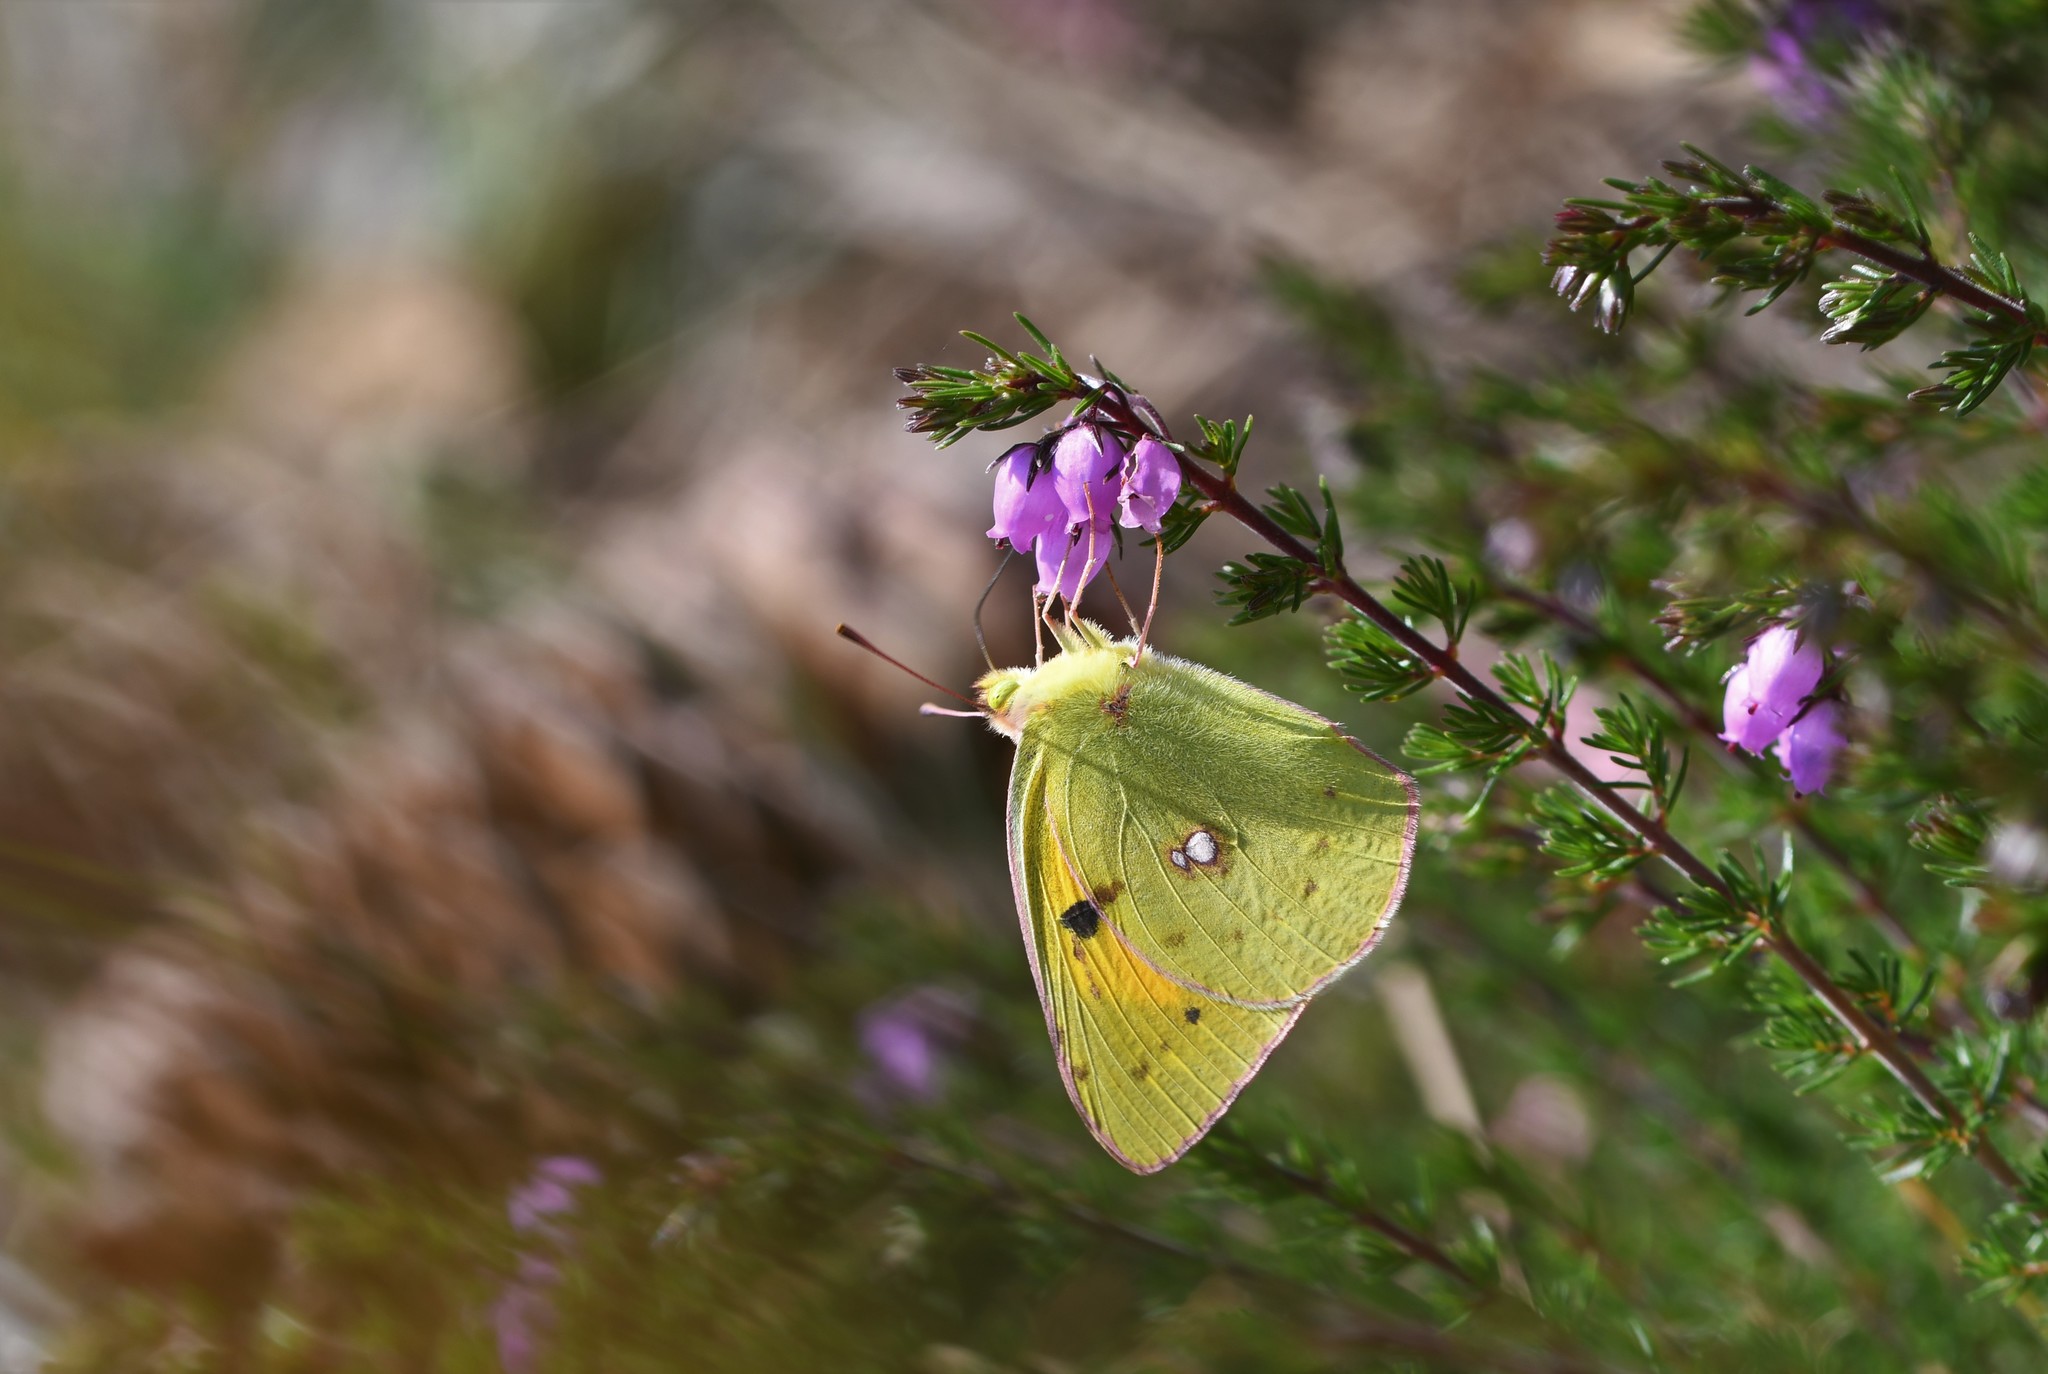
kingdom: Animalia
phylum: Arthropoda
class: Insecta
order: Lepidoptera
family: Pieridae
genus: Colias
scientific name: Colias croceus
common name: Clouded yellow
